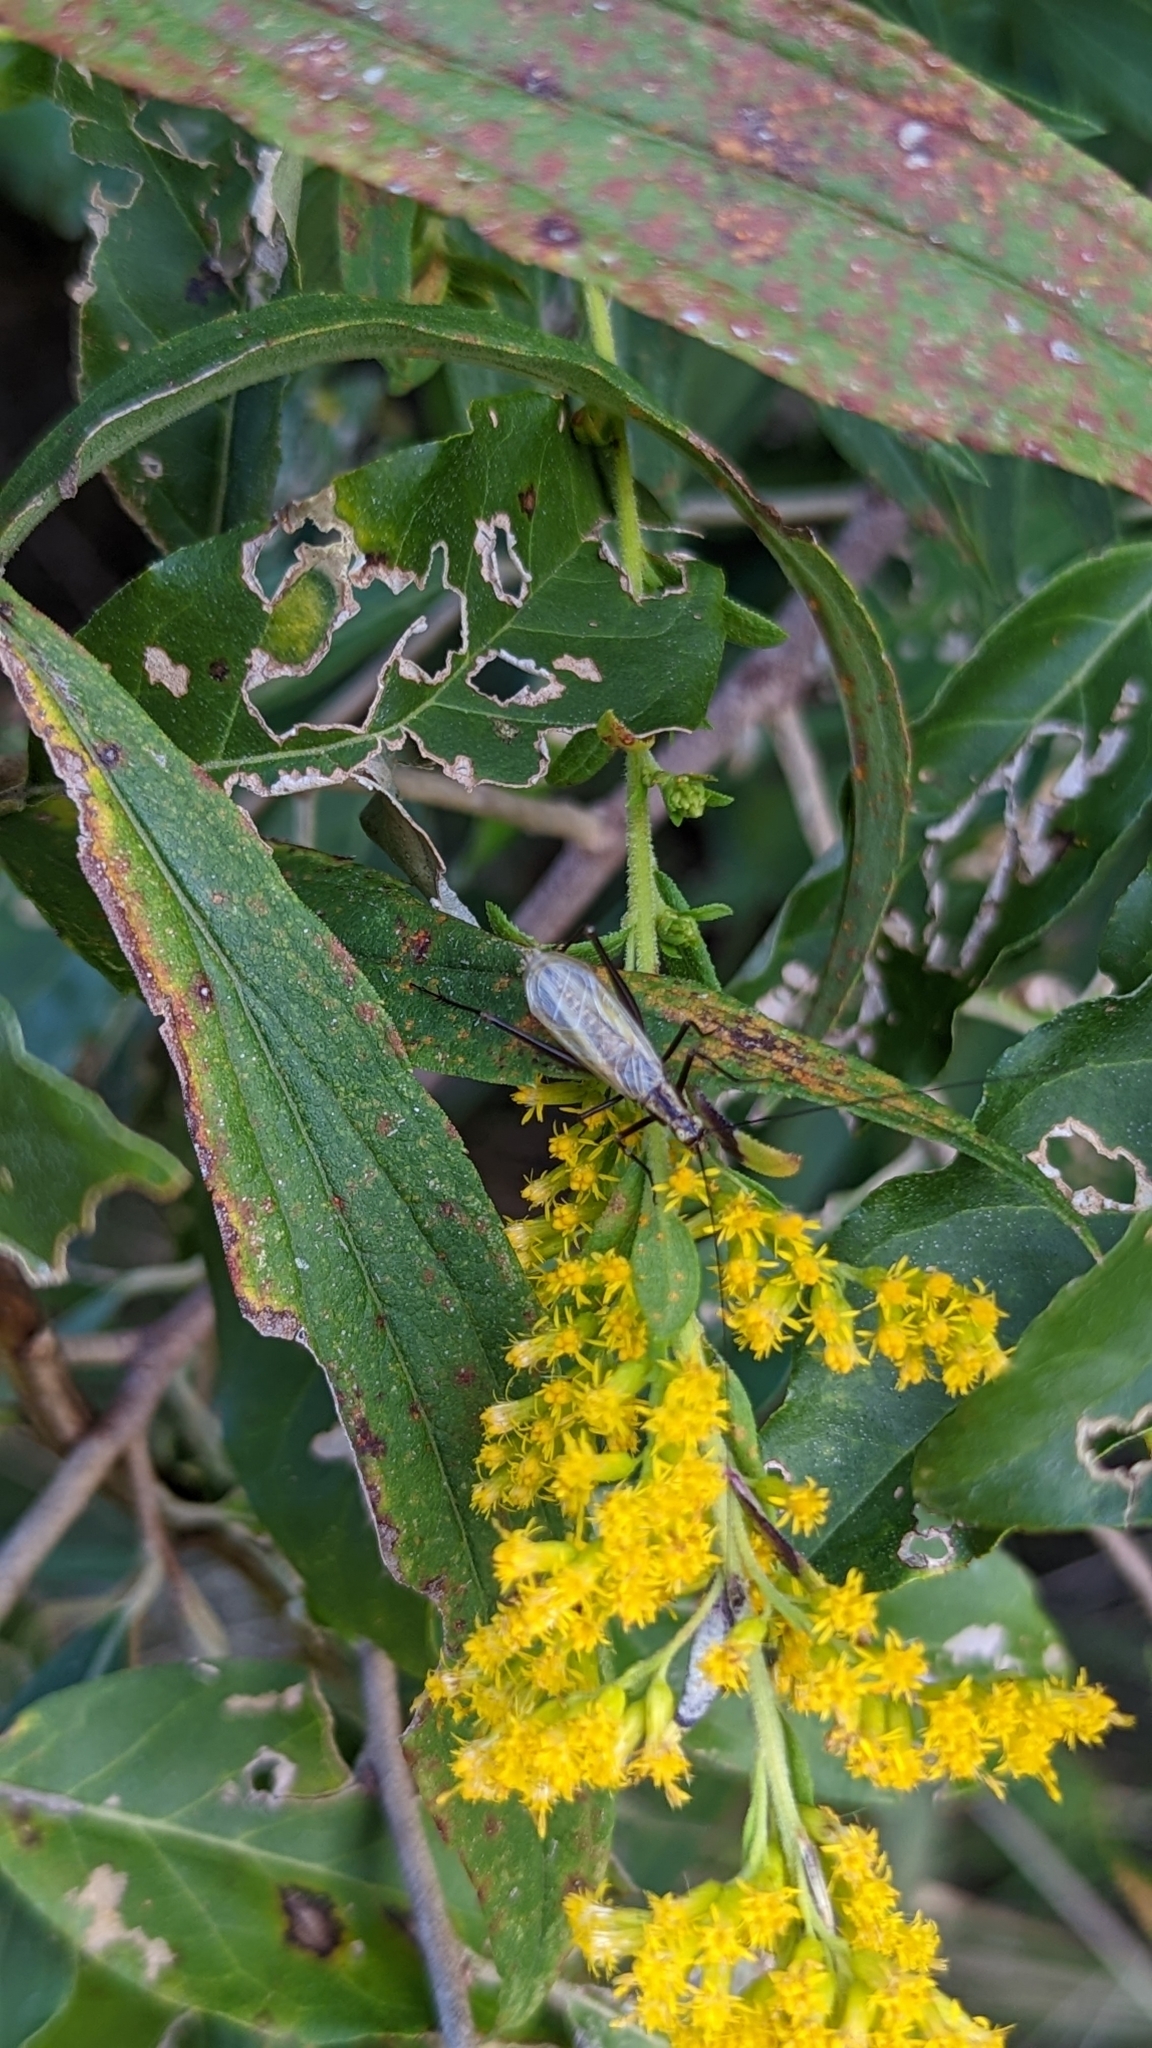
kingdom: Animalia
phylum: Arthropoda
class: Insecta
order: Orthoptera
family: Gryllidae
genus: Oecanthus
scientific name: Oecanthus
